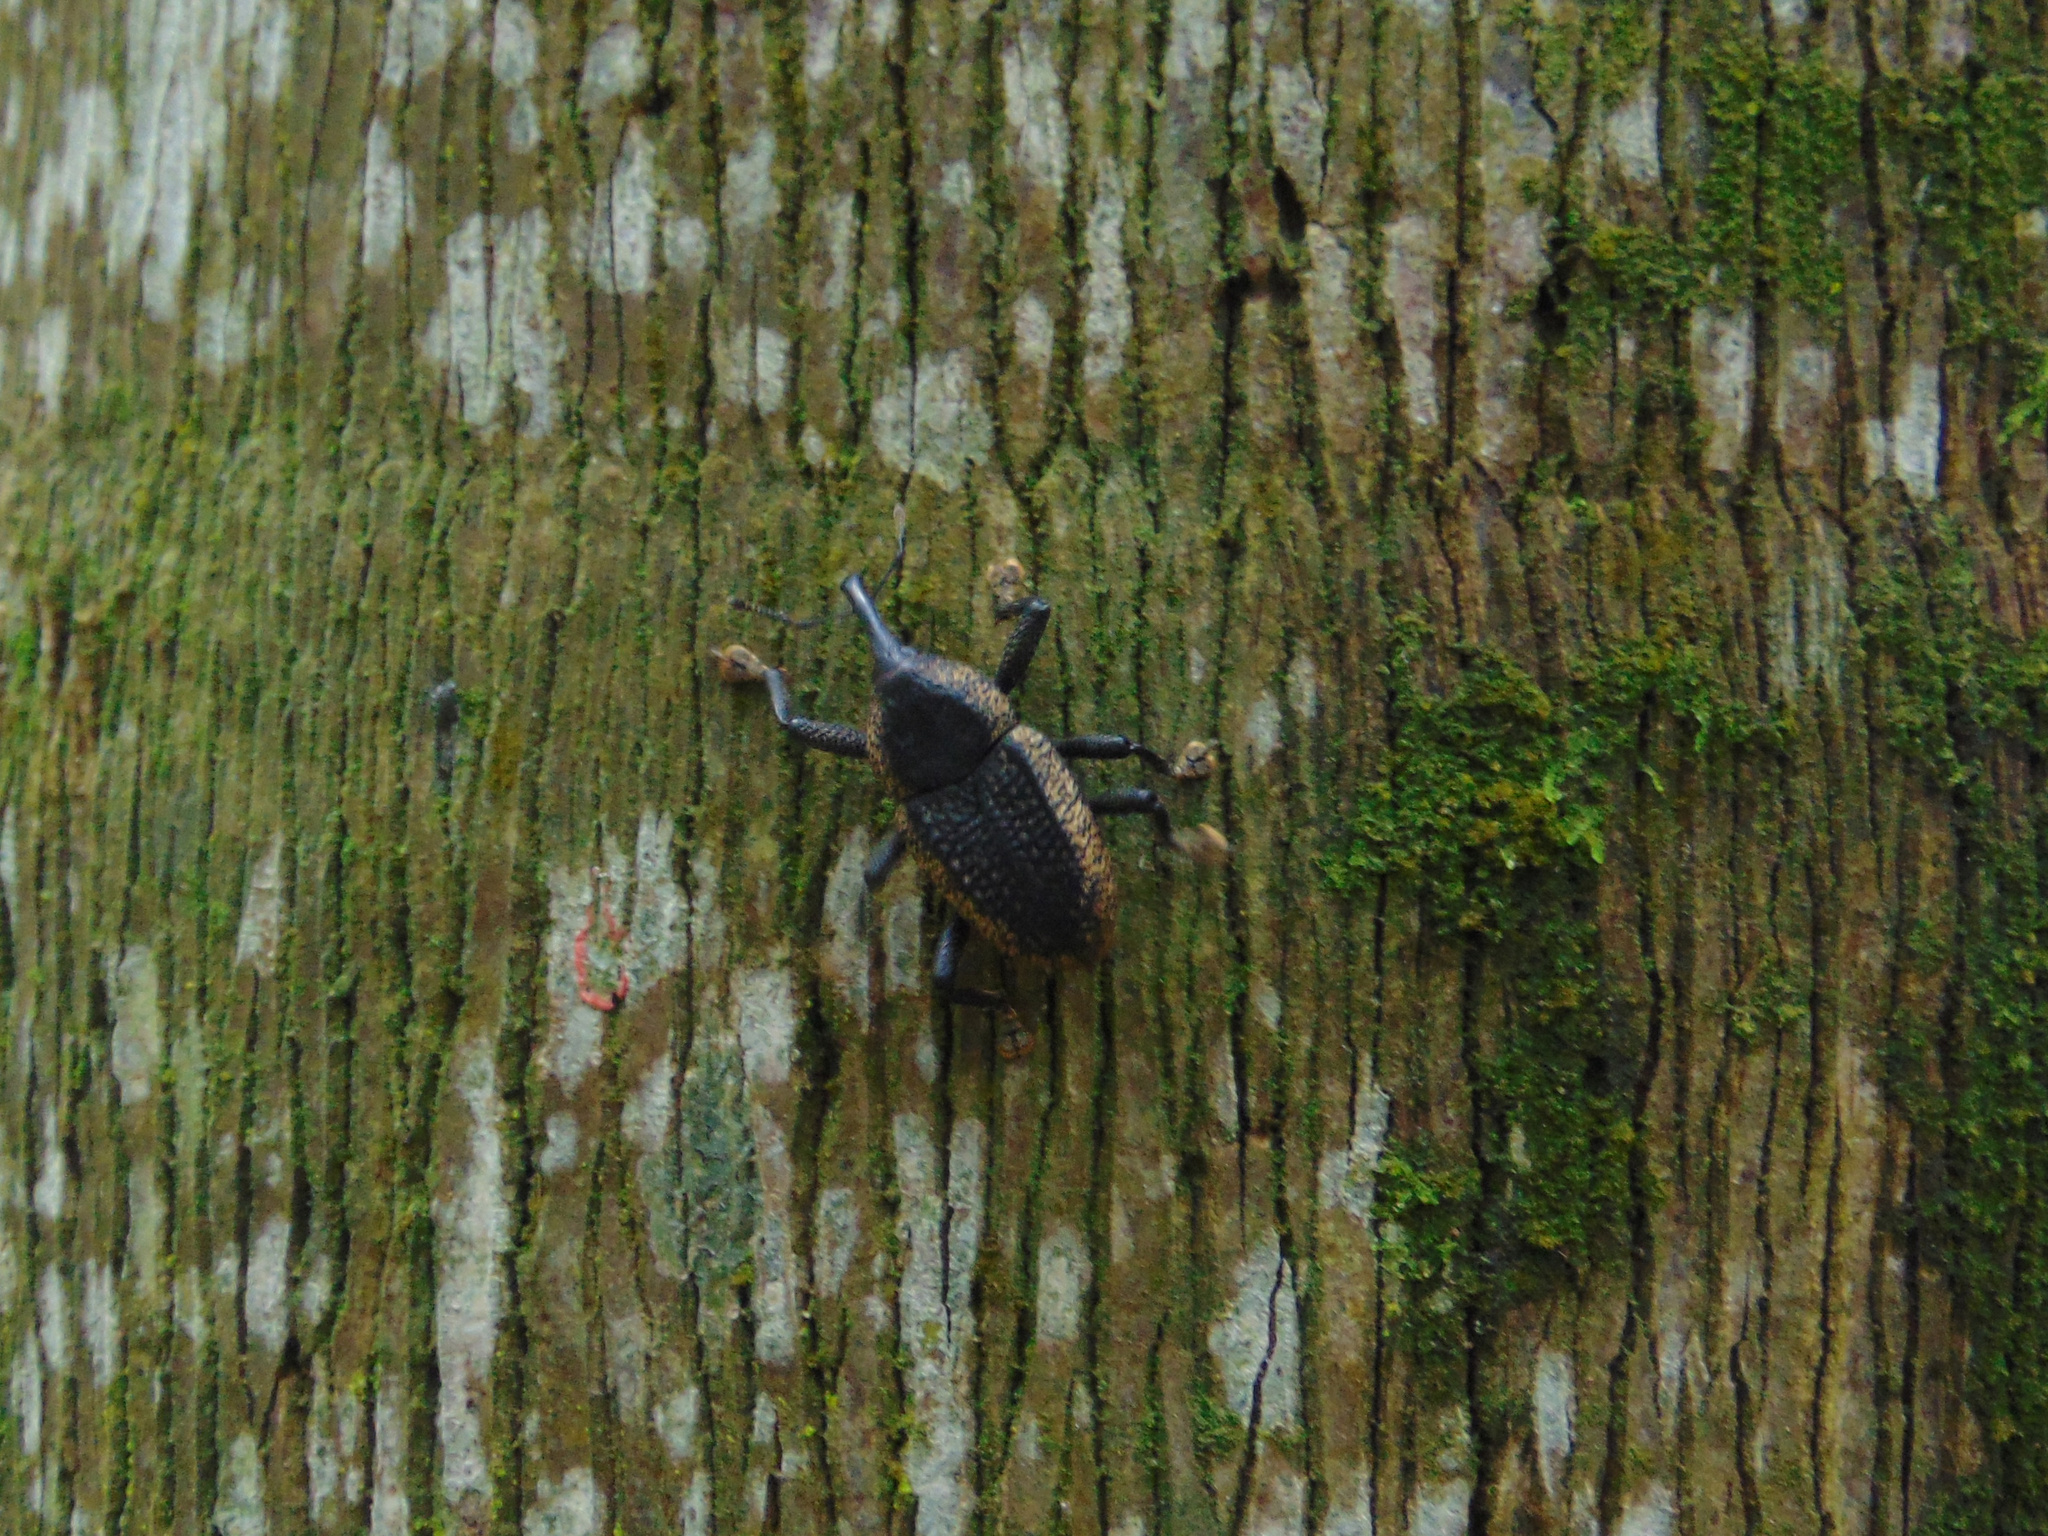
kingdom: Animalia
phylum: Arthropoda
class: Insecta
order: Coleoptera
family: Curculionidae
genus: Homalinotus
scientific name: Homalinotus deplanatus
